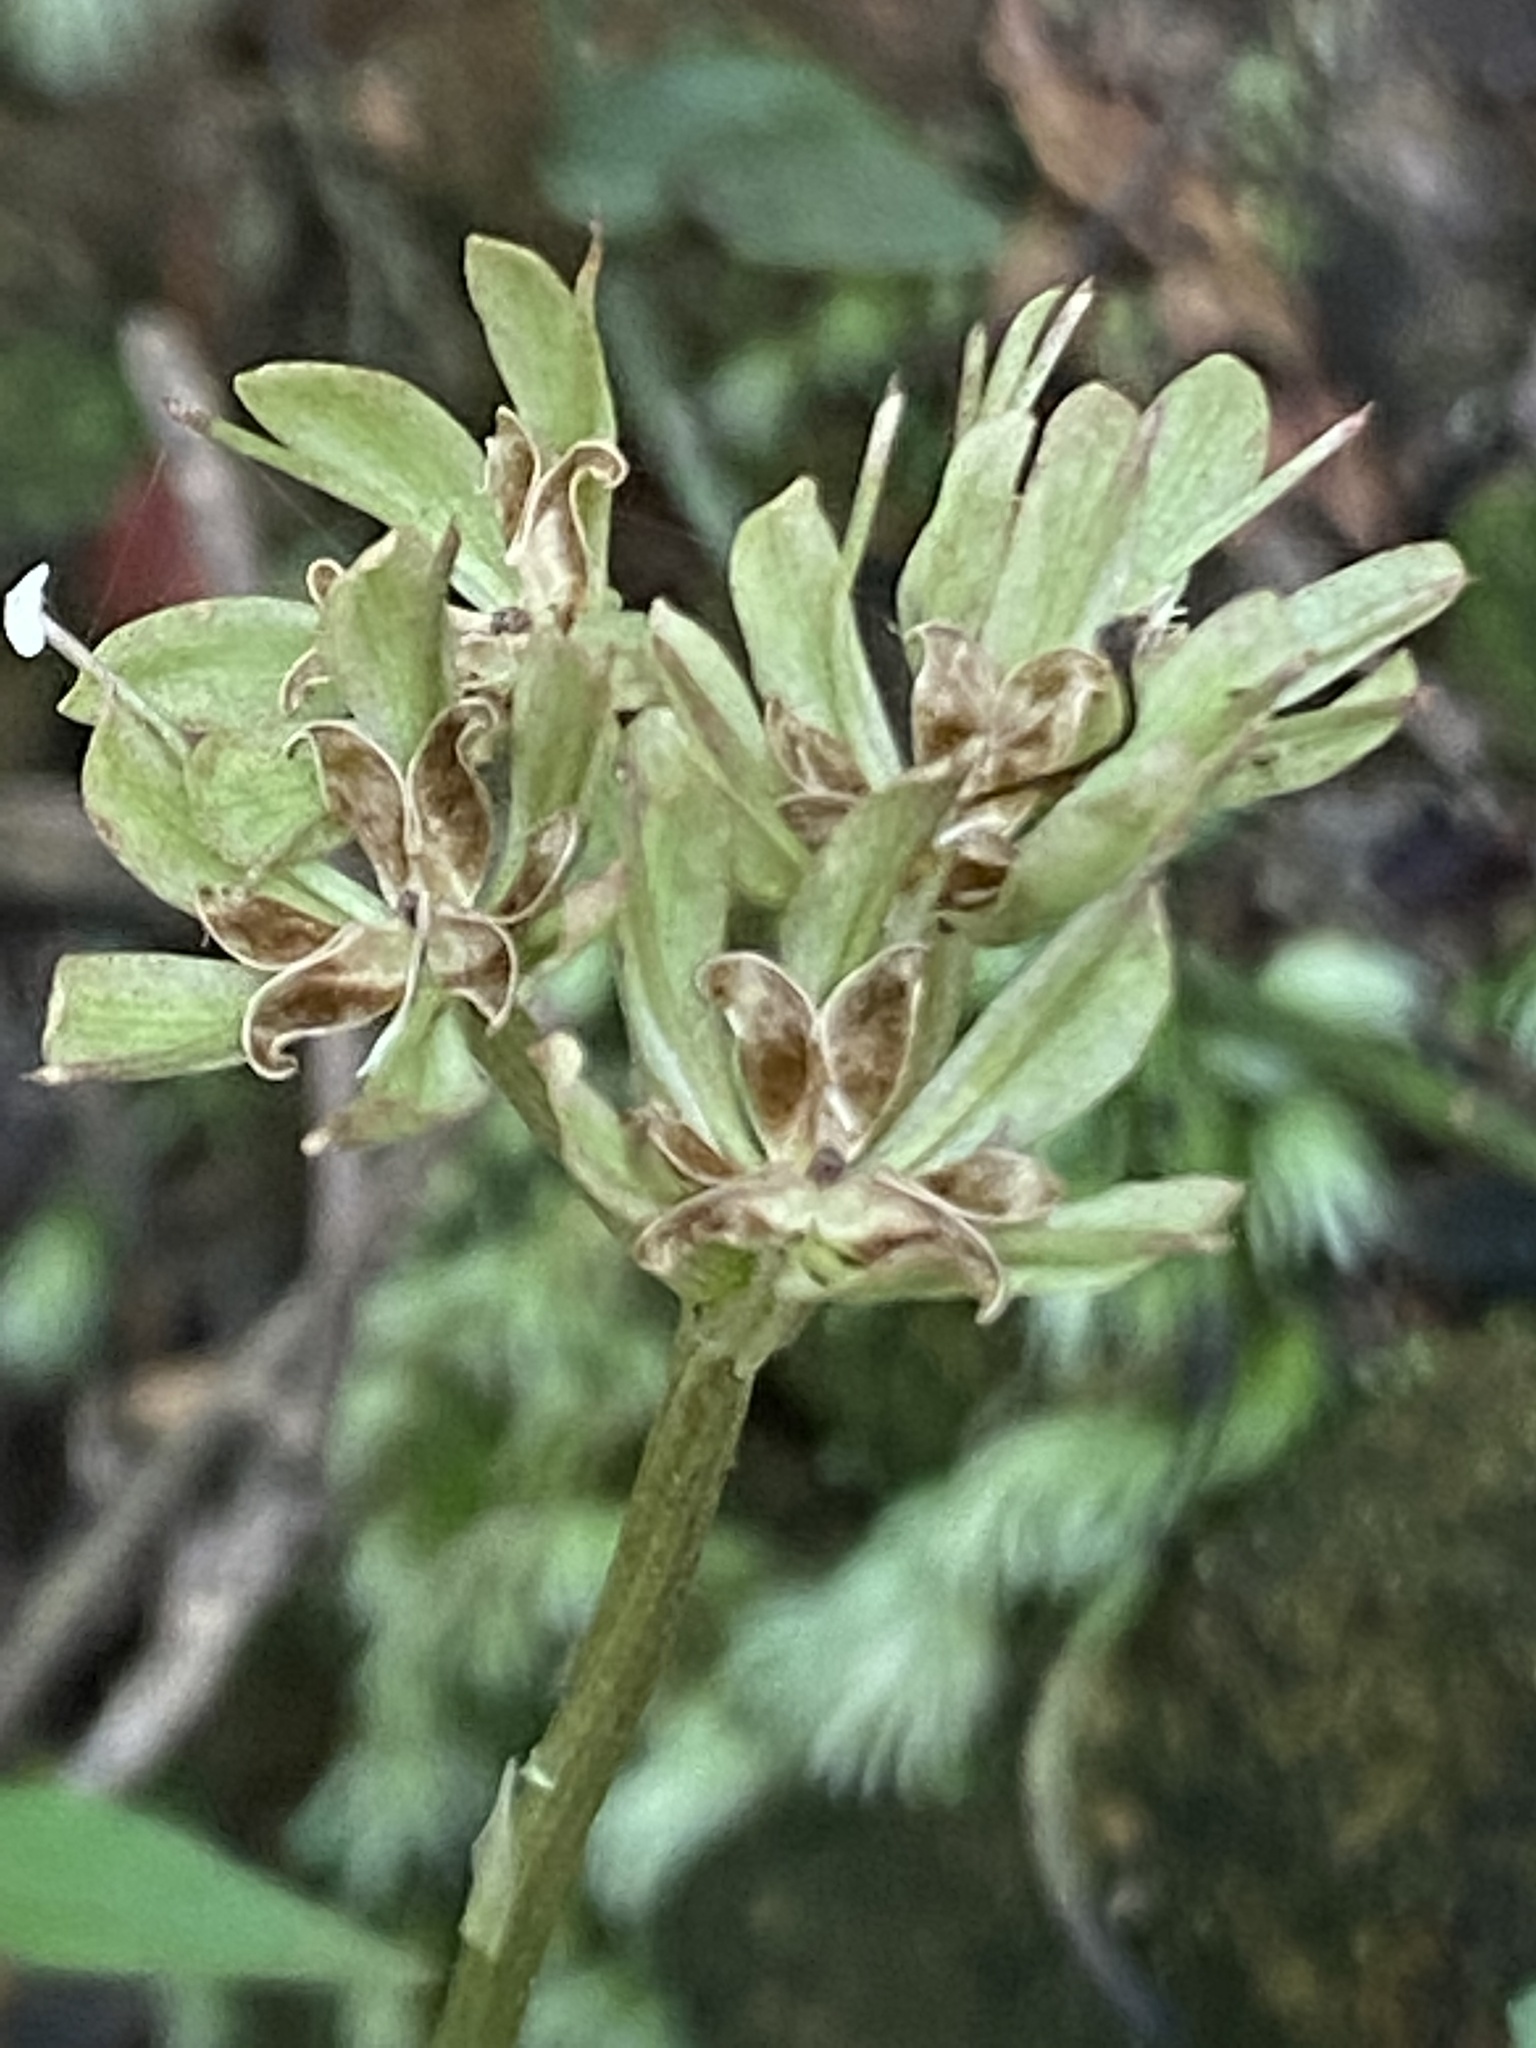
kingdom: Plantae
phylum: Tracheophyta
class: Liliopsida
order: Liliales
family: Melanthiaceae
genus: Helonias
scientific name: Helonias umbellata
